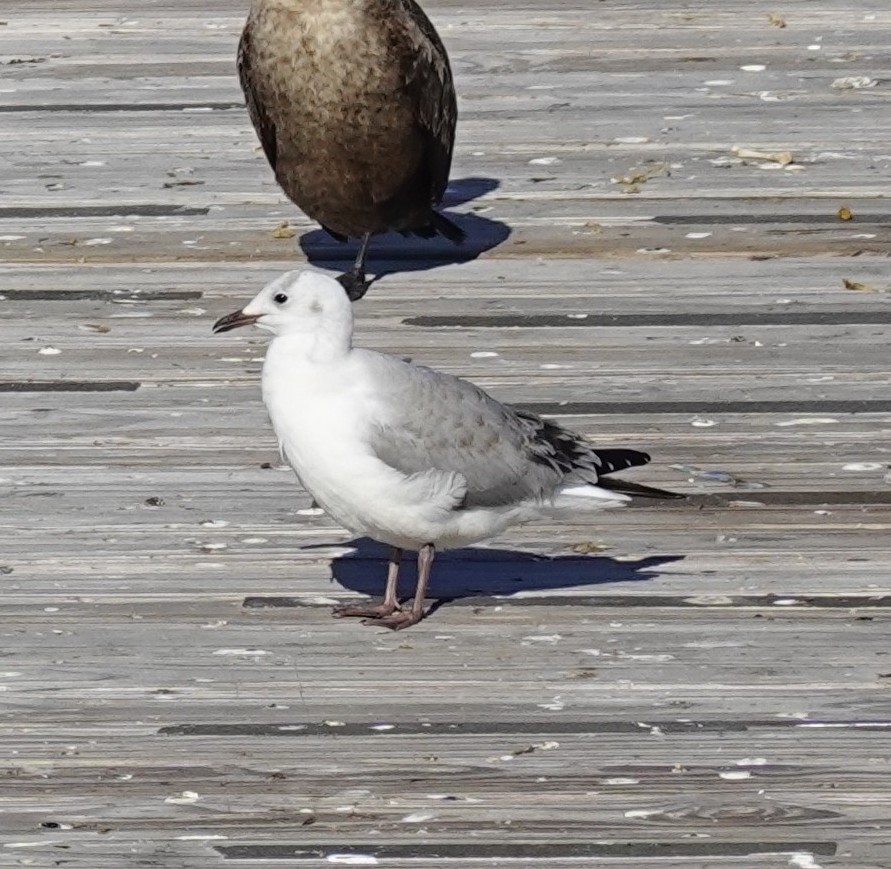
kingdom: Animalia
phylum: Chordata
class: Aves
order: Charadriiformes
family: Laridae
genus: Chroicocephalus
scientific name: Chroicocephalus hartlaubii
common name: Hartlaub's gull
